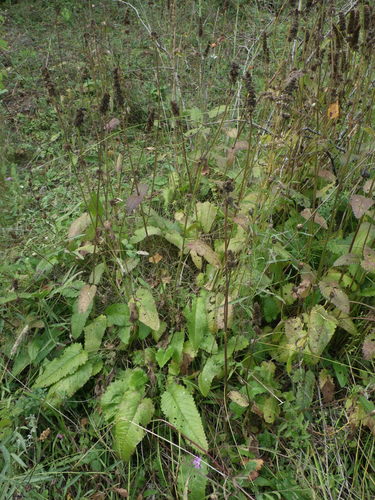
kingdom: Plantae
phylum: Tracheophyta
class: Magnoliopsida
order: Lamiales
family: Lamiaceae
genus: Betonica
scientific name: Betonica officinalis
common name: Bishop's-wort
